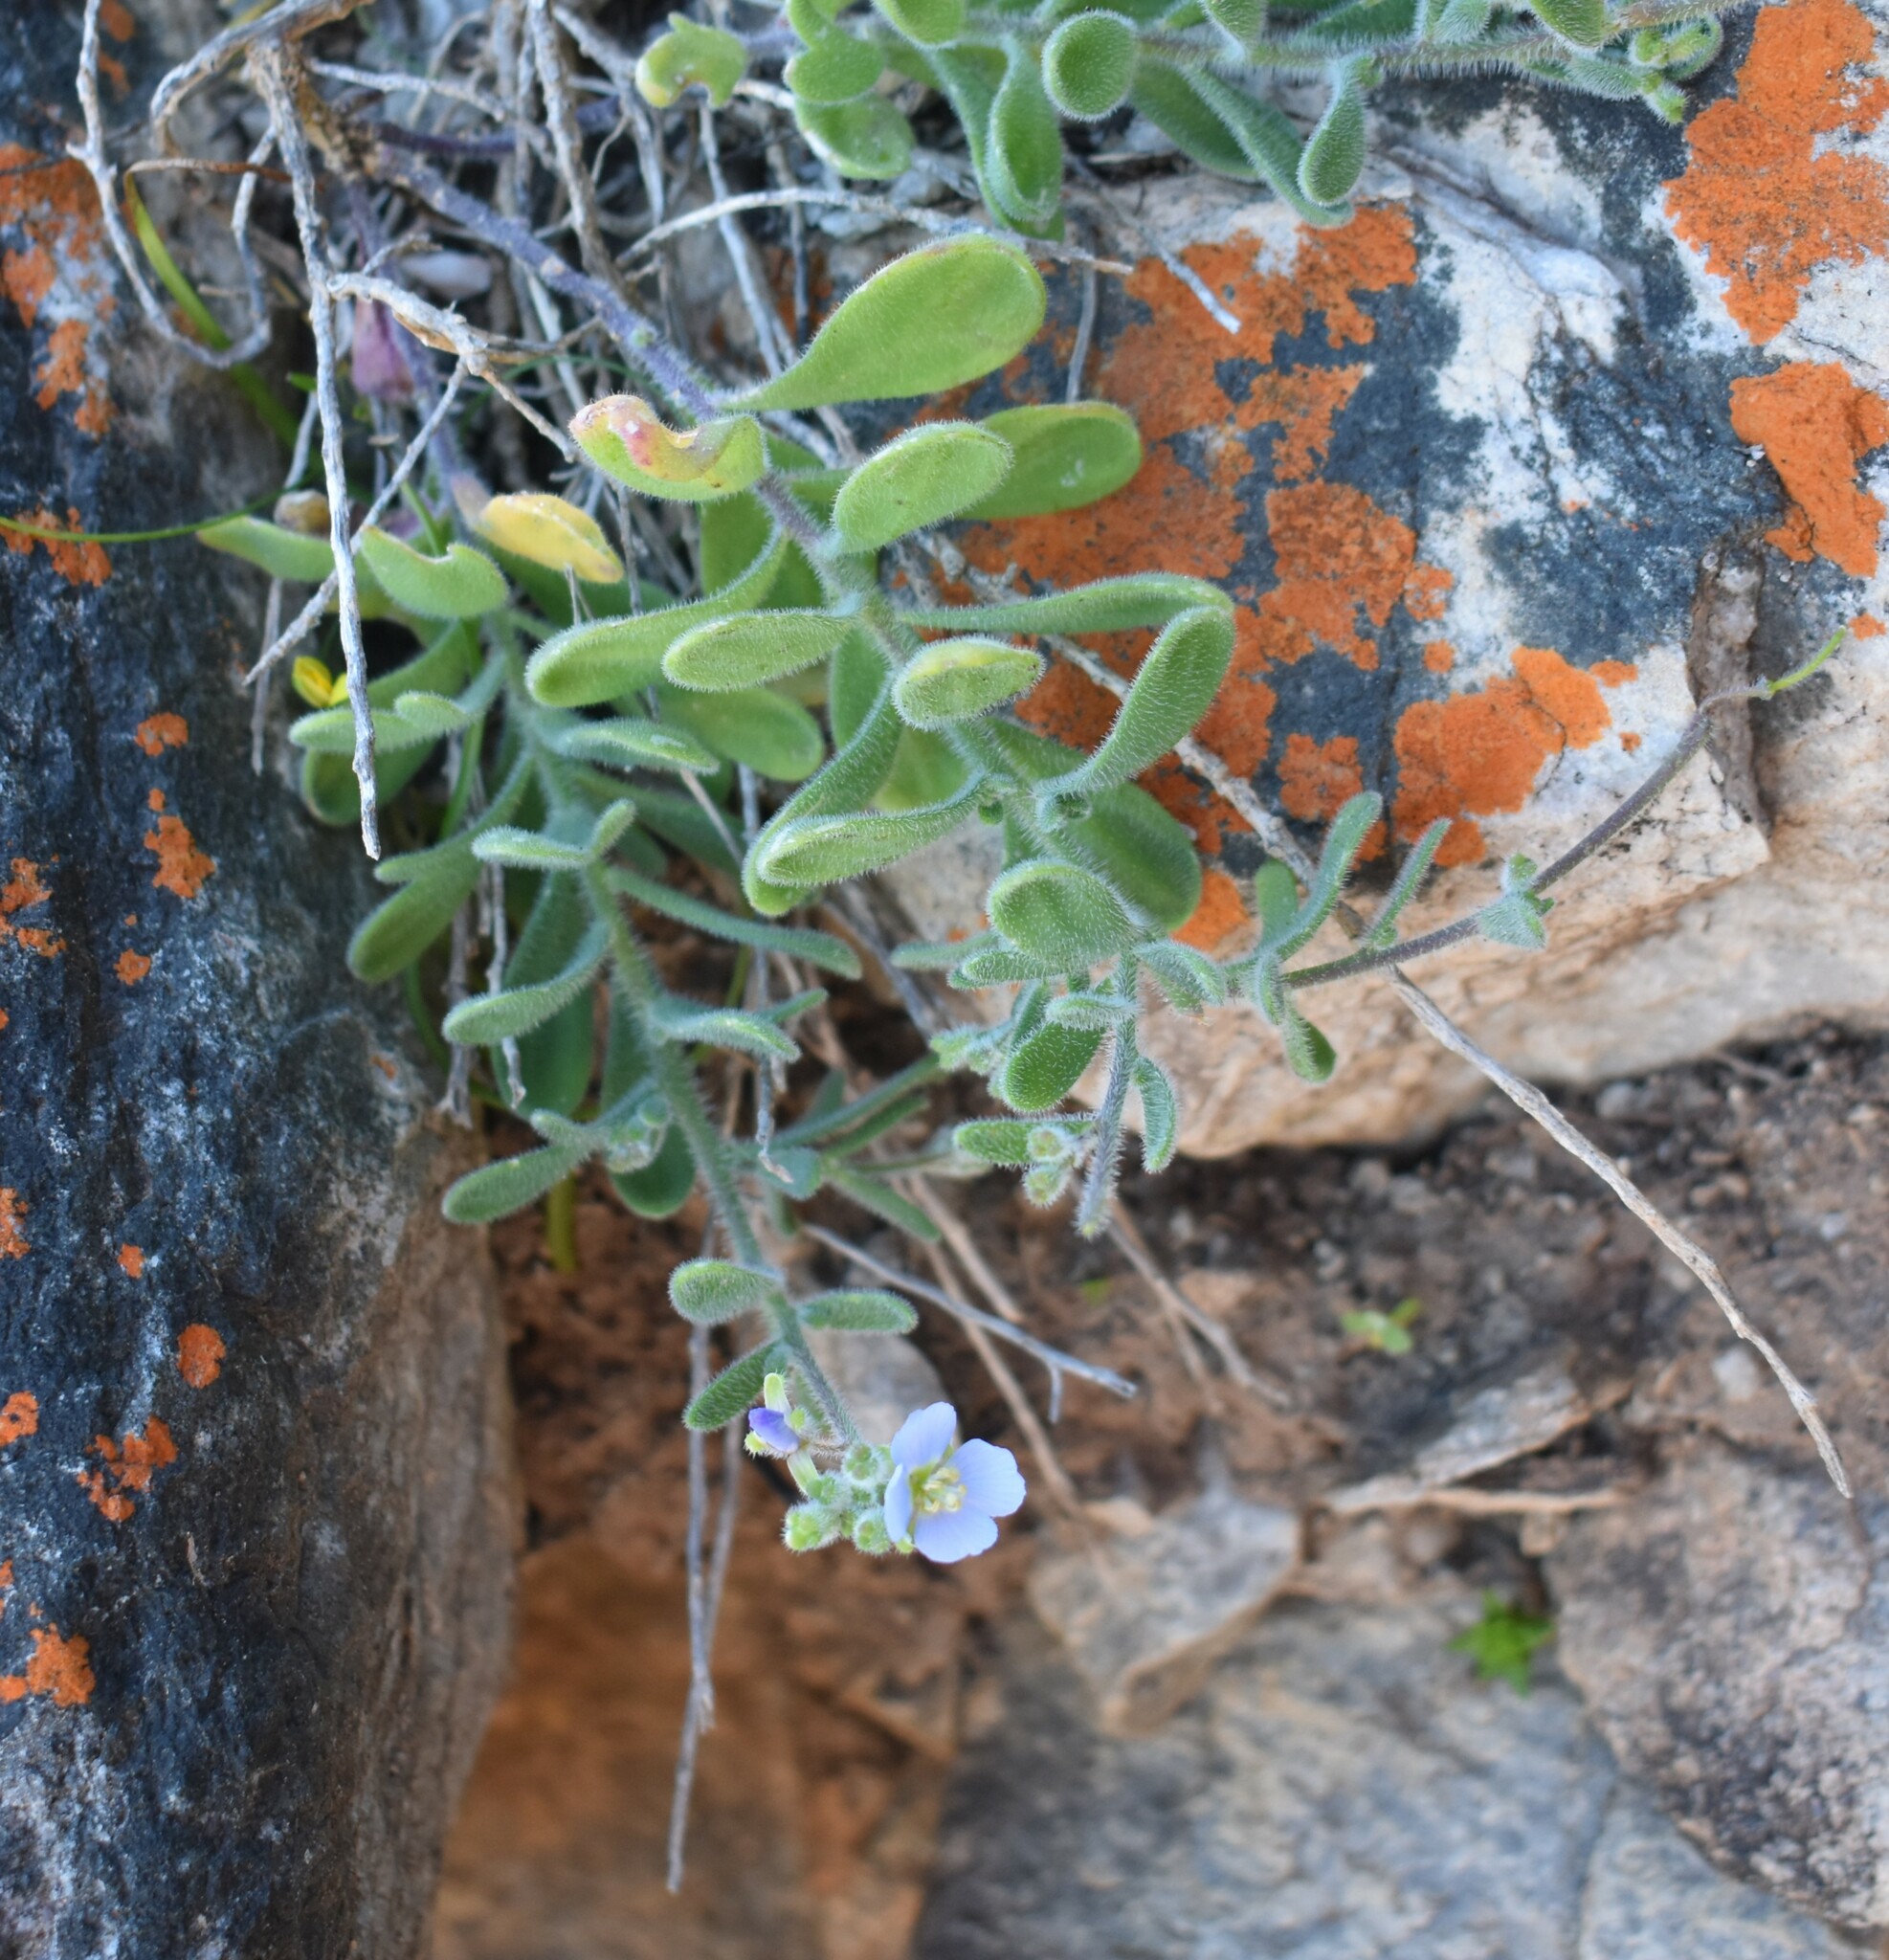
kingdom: Plantae
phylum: Tracheophyta
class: Magnoliopsida
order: Brassicales
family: Brassicaceae
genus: Heliophila
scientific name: Heliophila crassistyla
